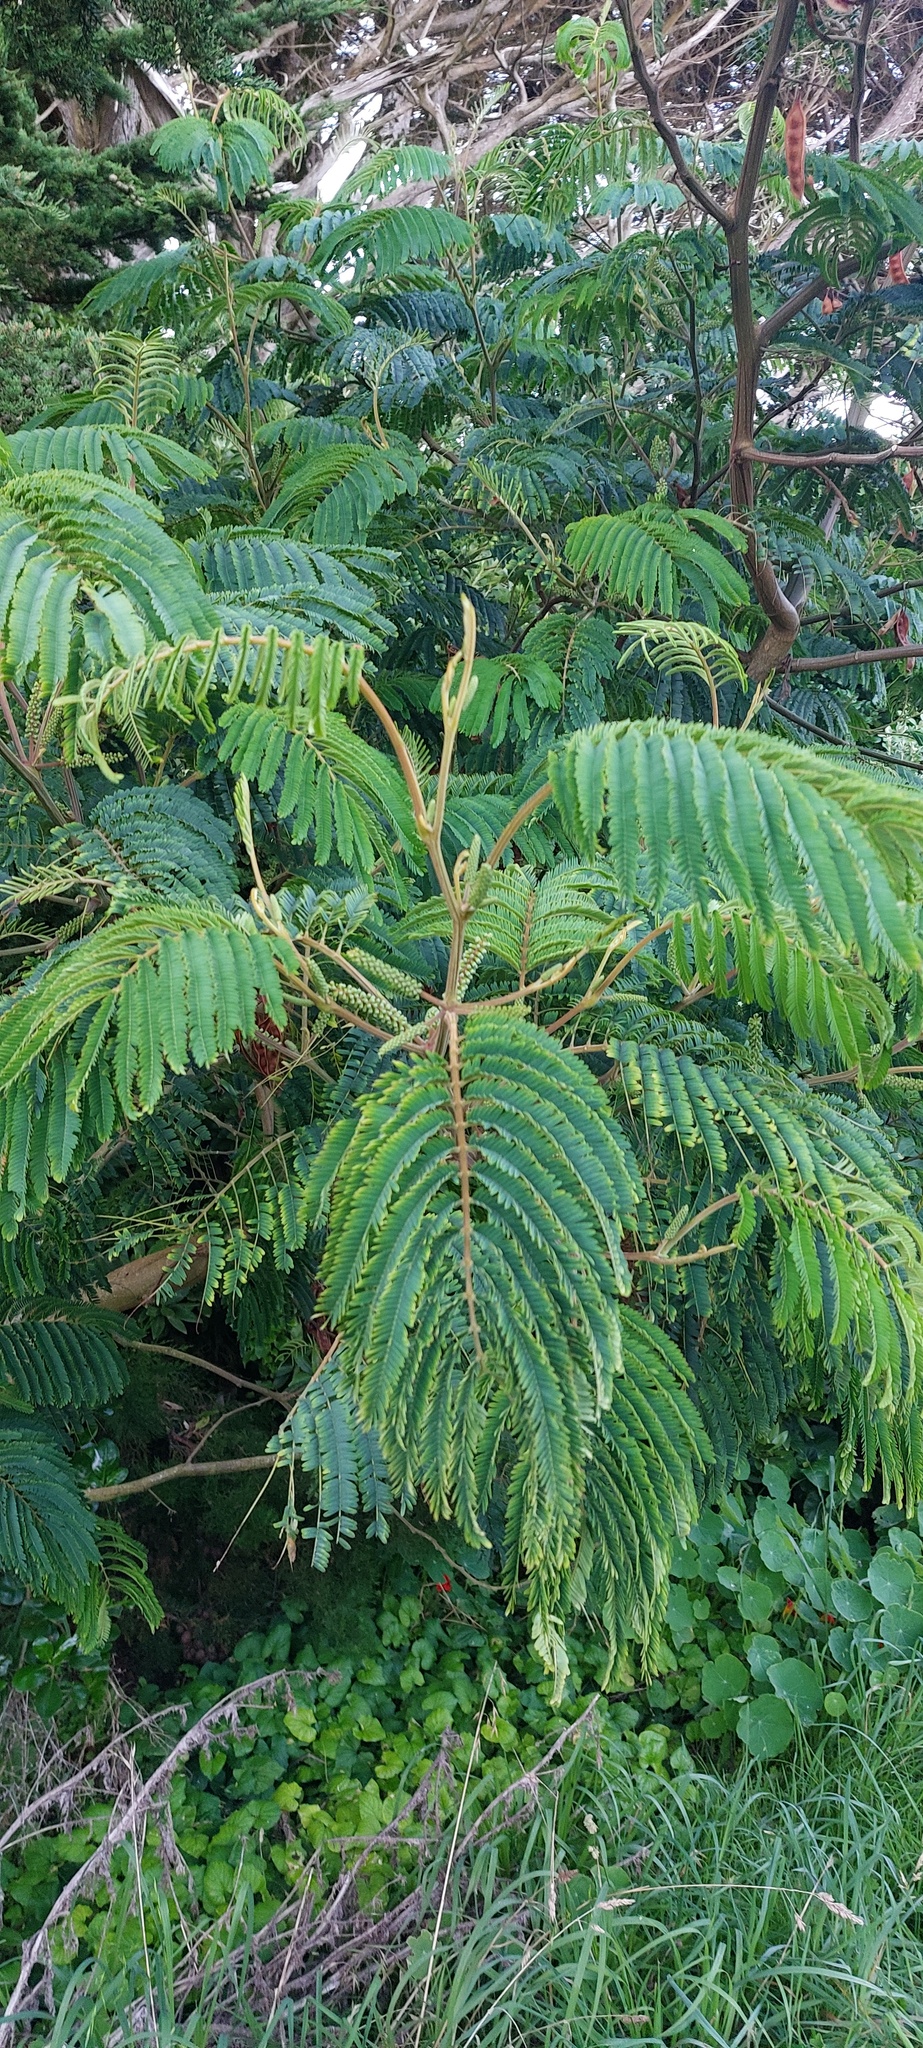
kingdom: Plantae
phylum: Tracheophyta
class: Magnoliopsida
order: Fabales
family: Fabaceae
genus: Paraserianthes
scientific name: Paraserianthes lophantha
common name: Plume albizia
